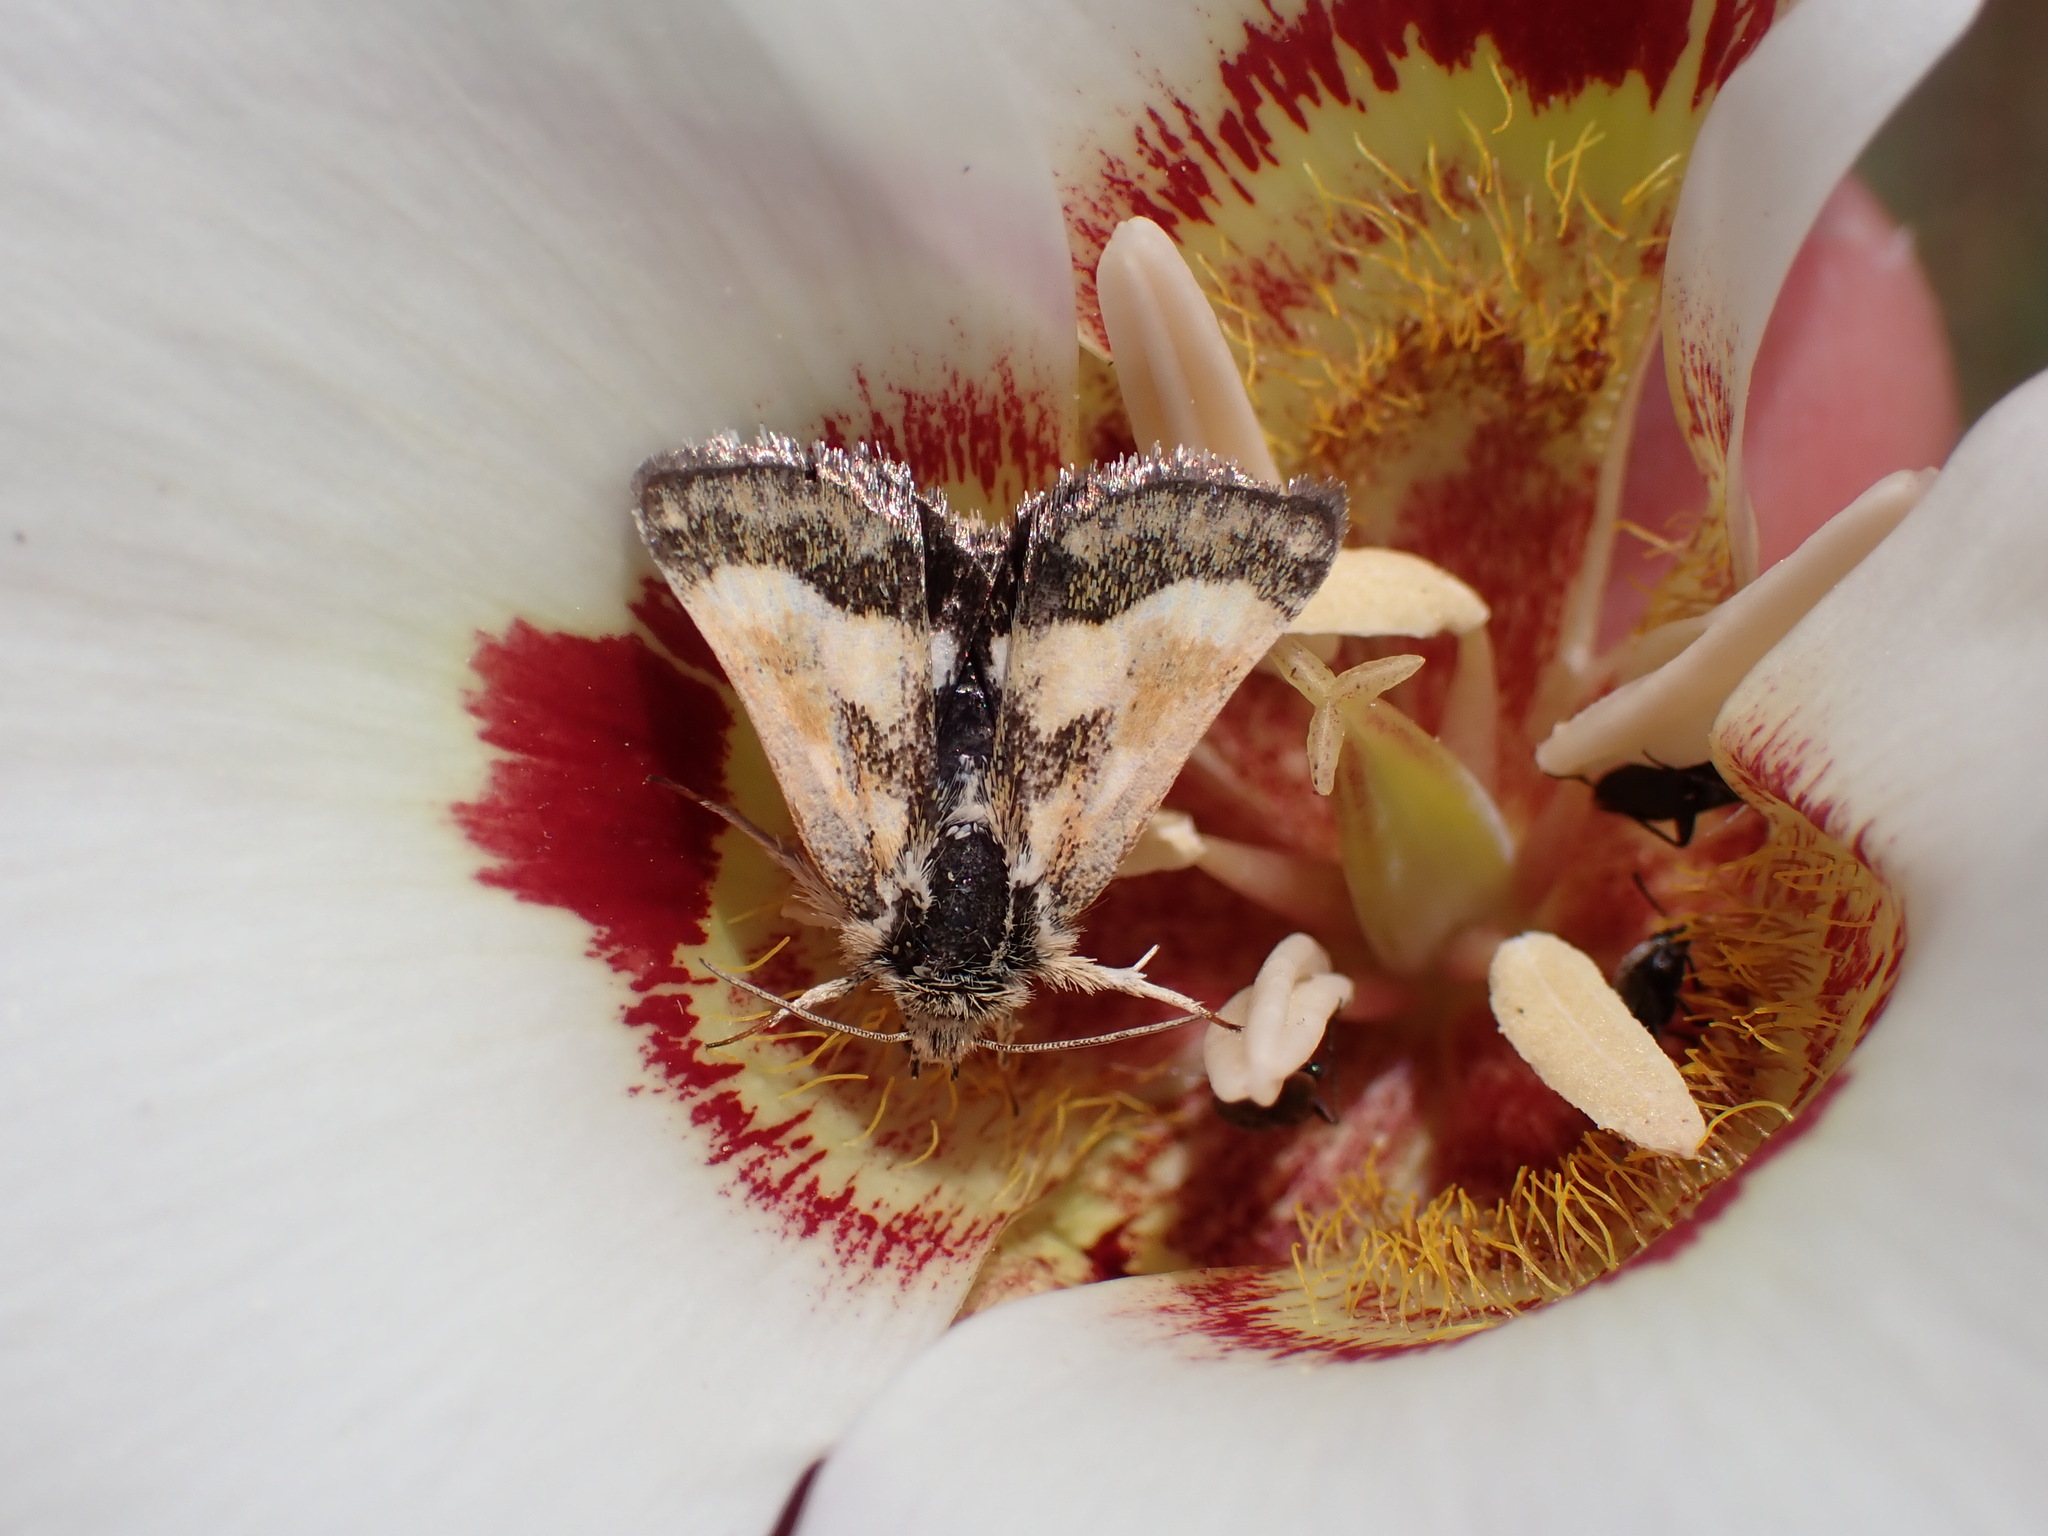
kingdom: Animalia
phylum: Arthropoda
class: Insecta
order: Lepidoptera
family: Noctuidae
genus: Heliothodes
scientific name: Heliothodes diminutiva
